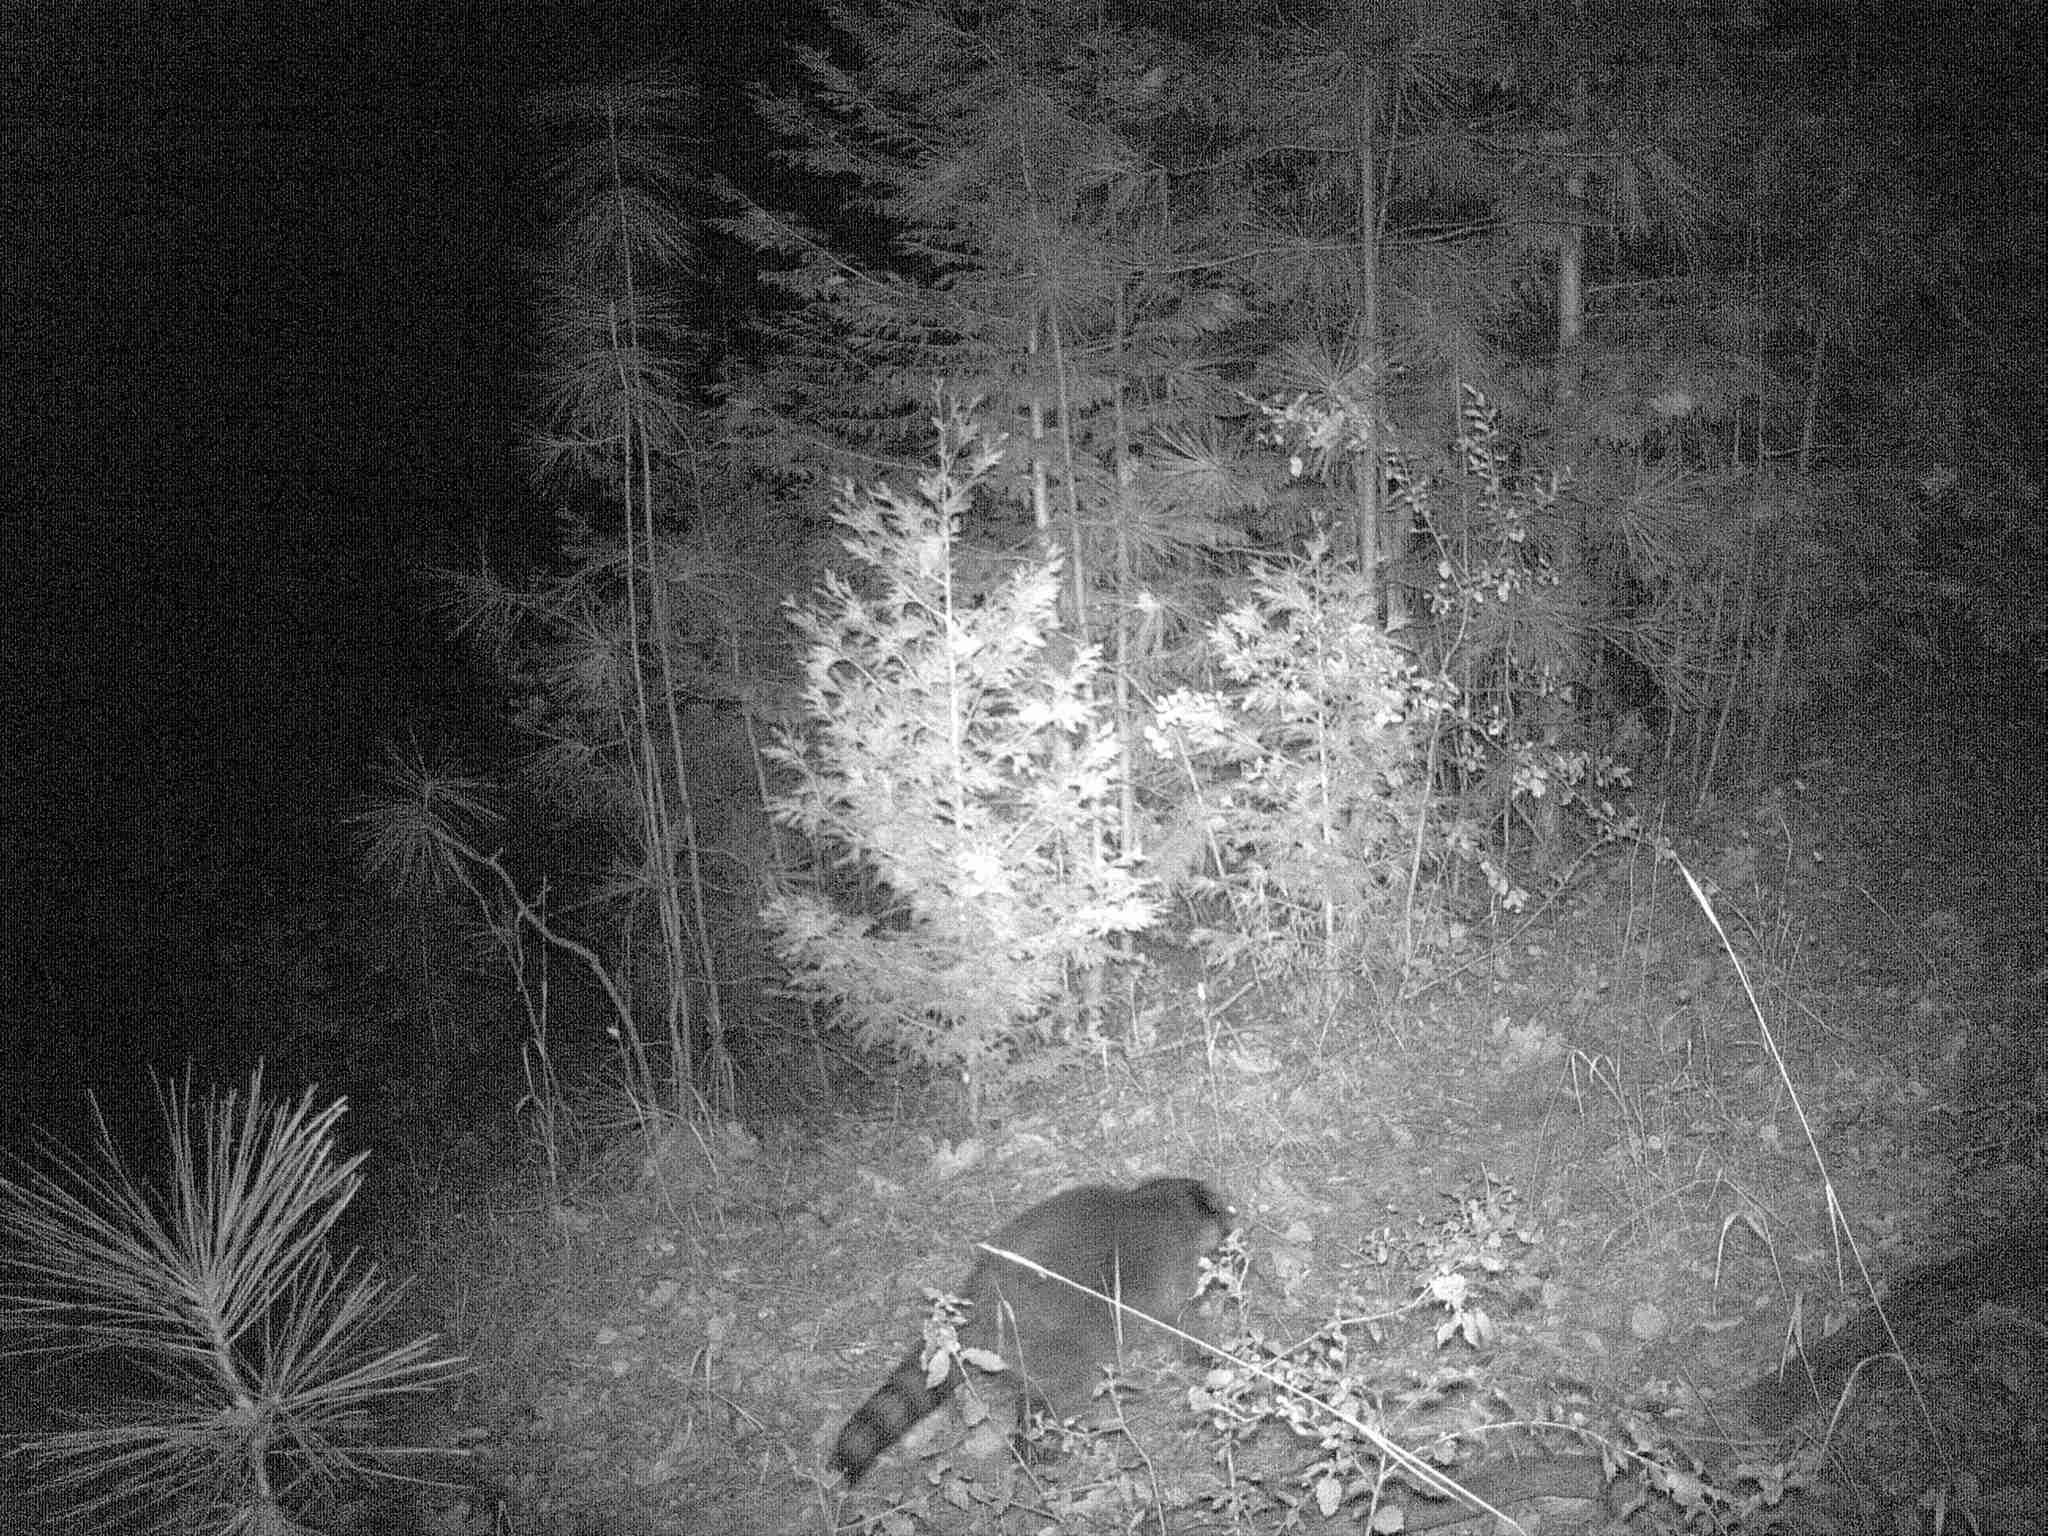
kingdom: Animalia
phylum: Chordata
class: Mammalia
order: Carnivora
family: Procyonidae
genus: Procyon
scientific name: Procyon lotor
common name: Raccoon
